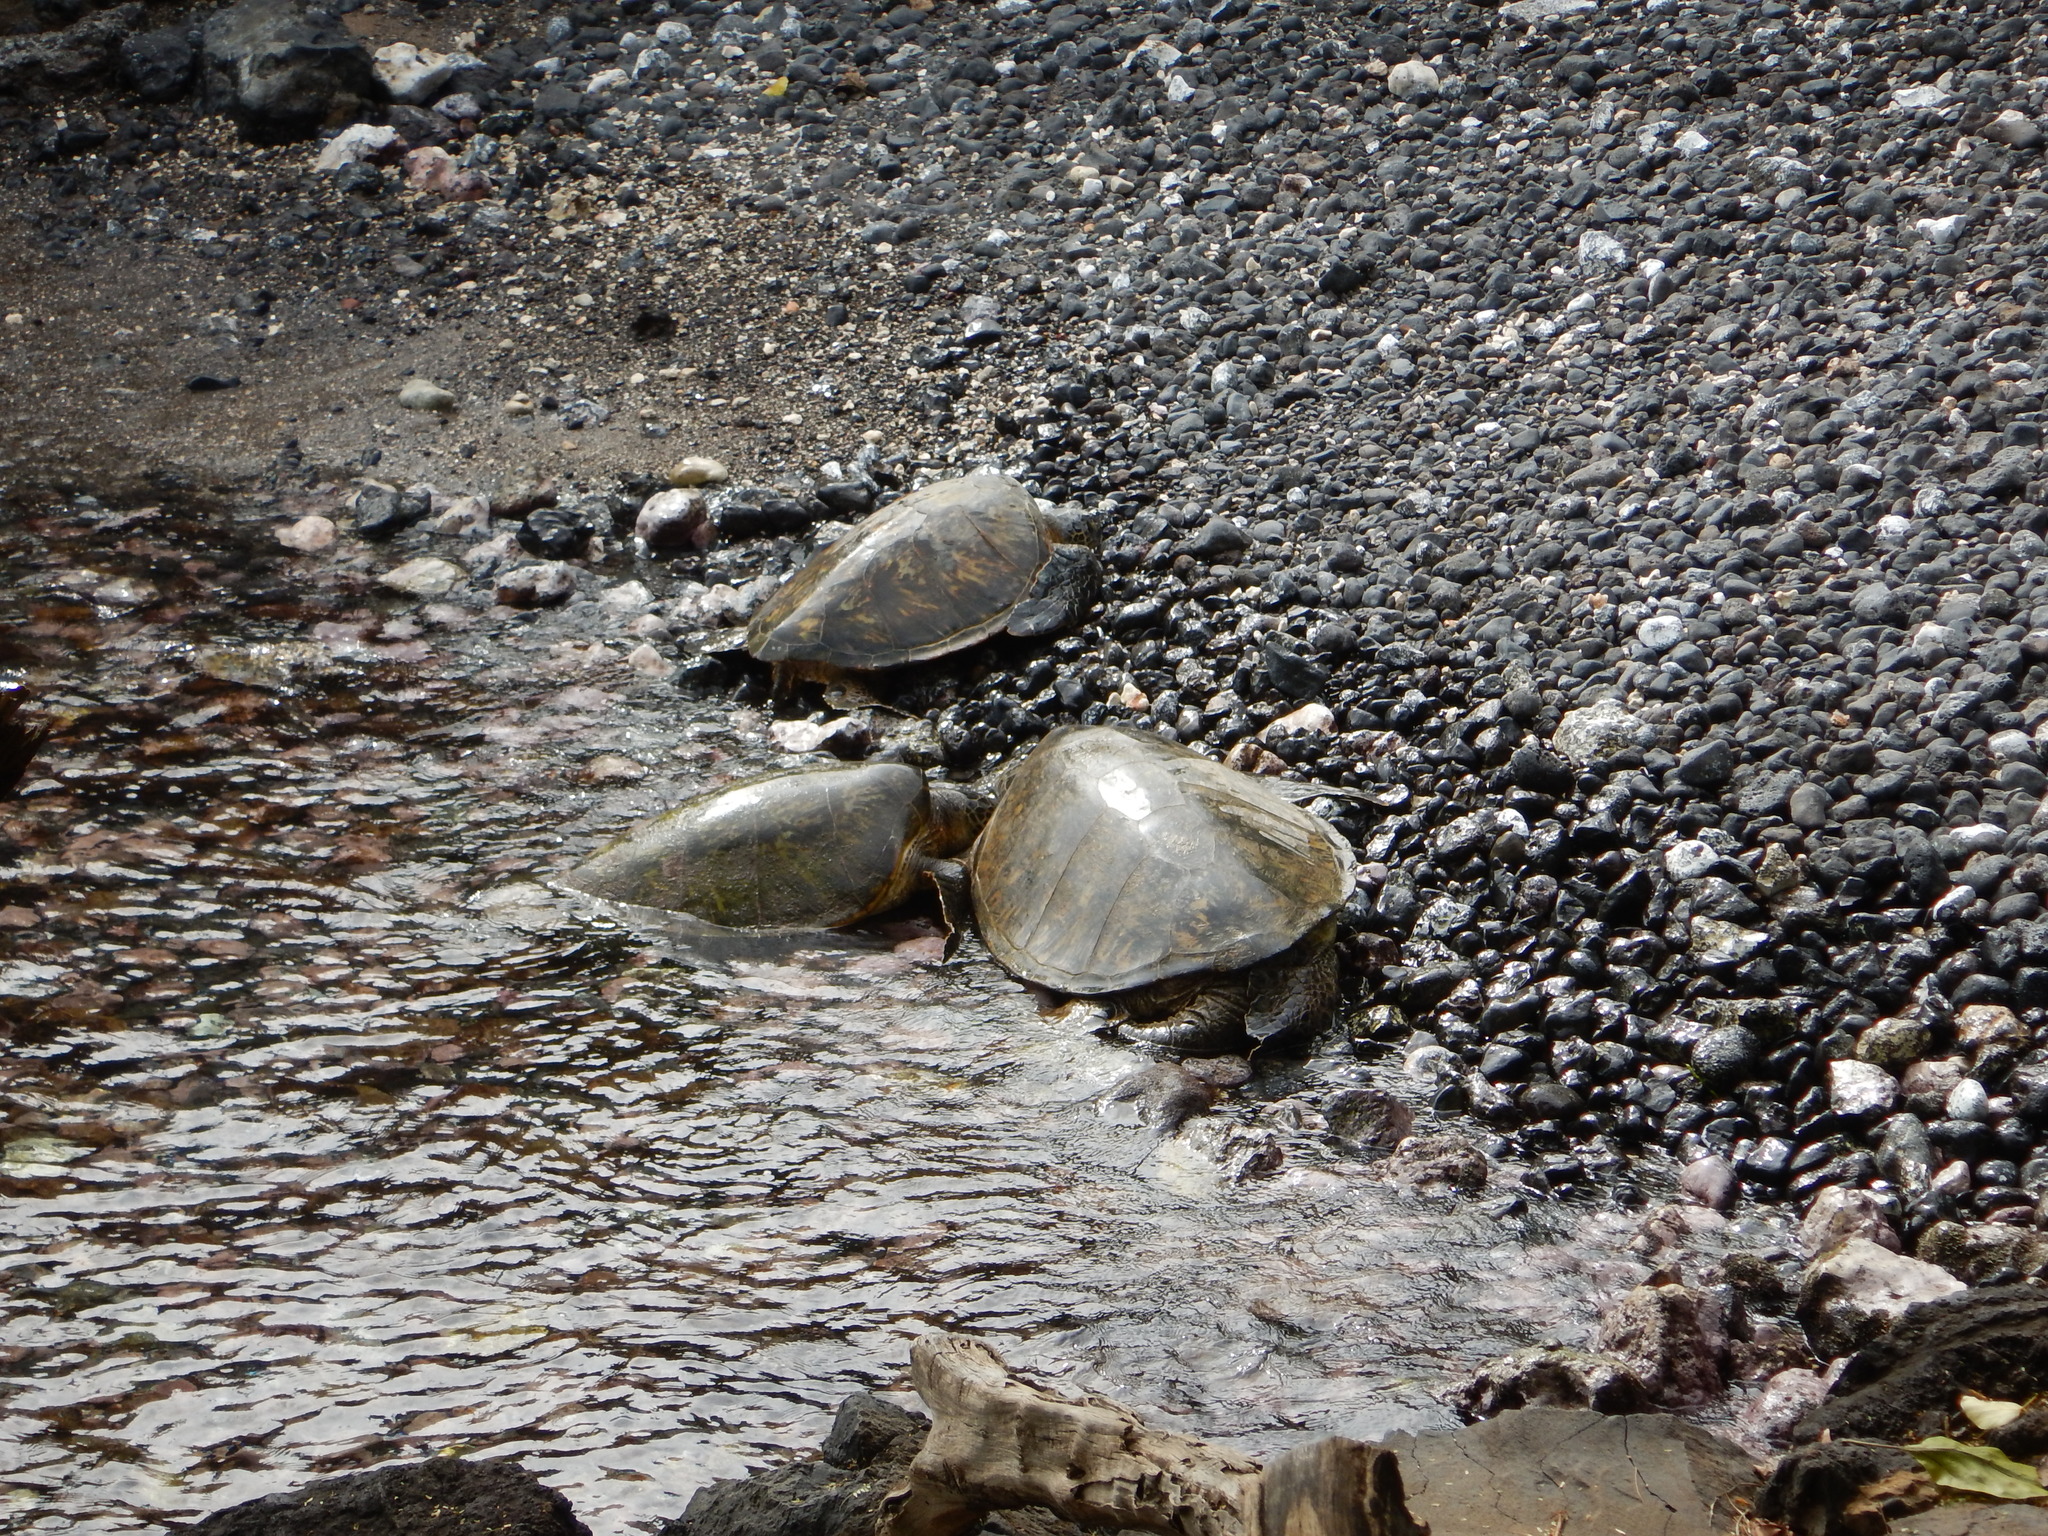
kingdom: Animalia
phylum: Chordata
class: Testudines
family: Cheloniidae
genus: Chelonia
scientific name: Chelonia mydas
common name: Green turtle
